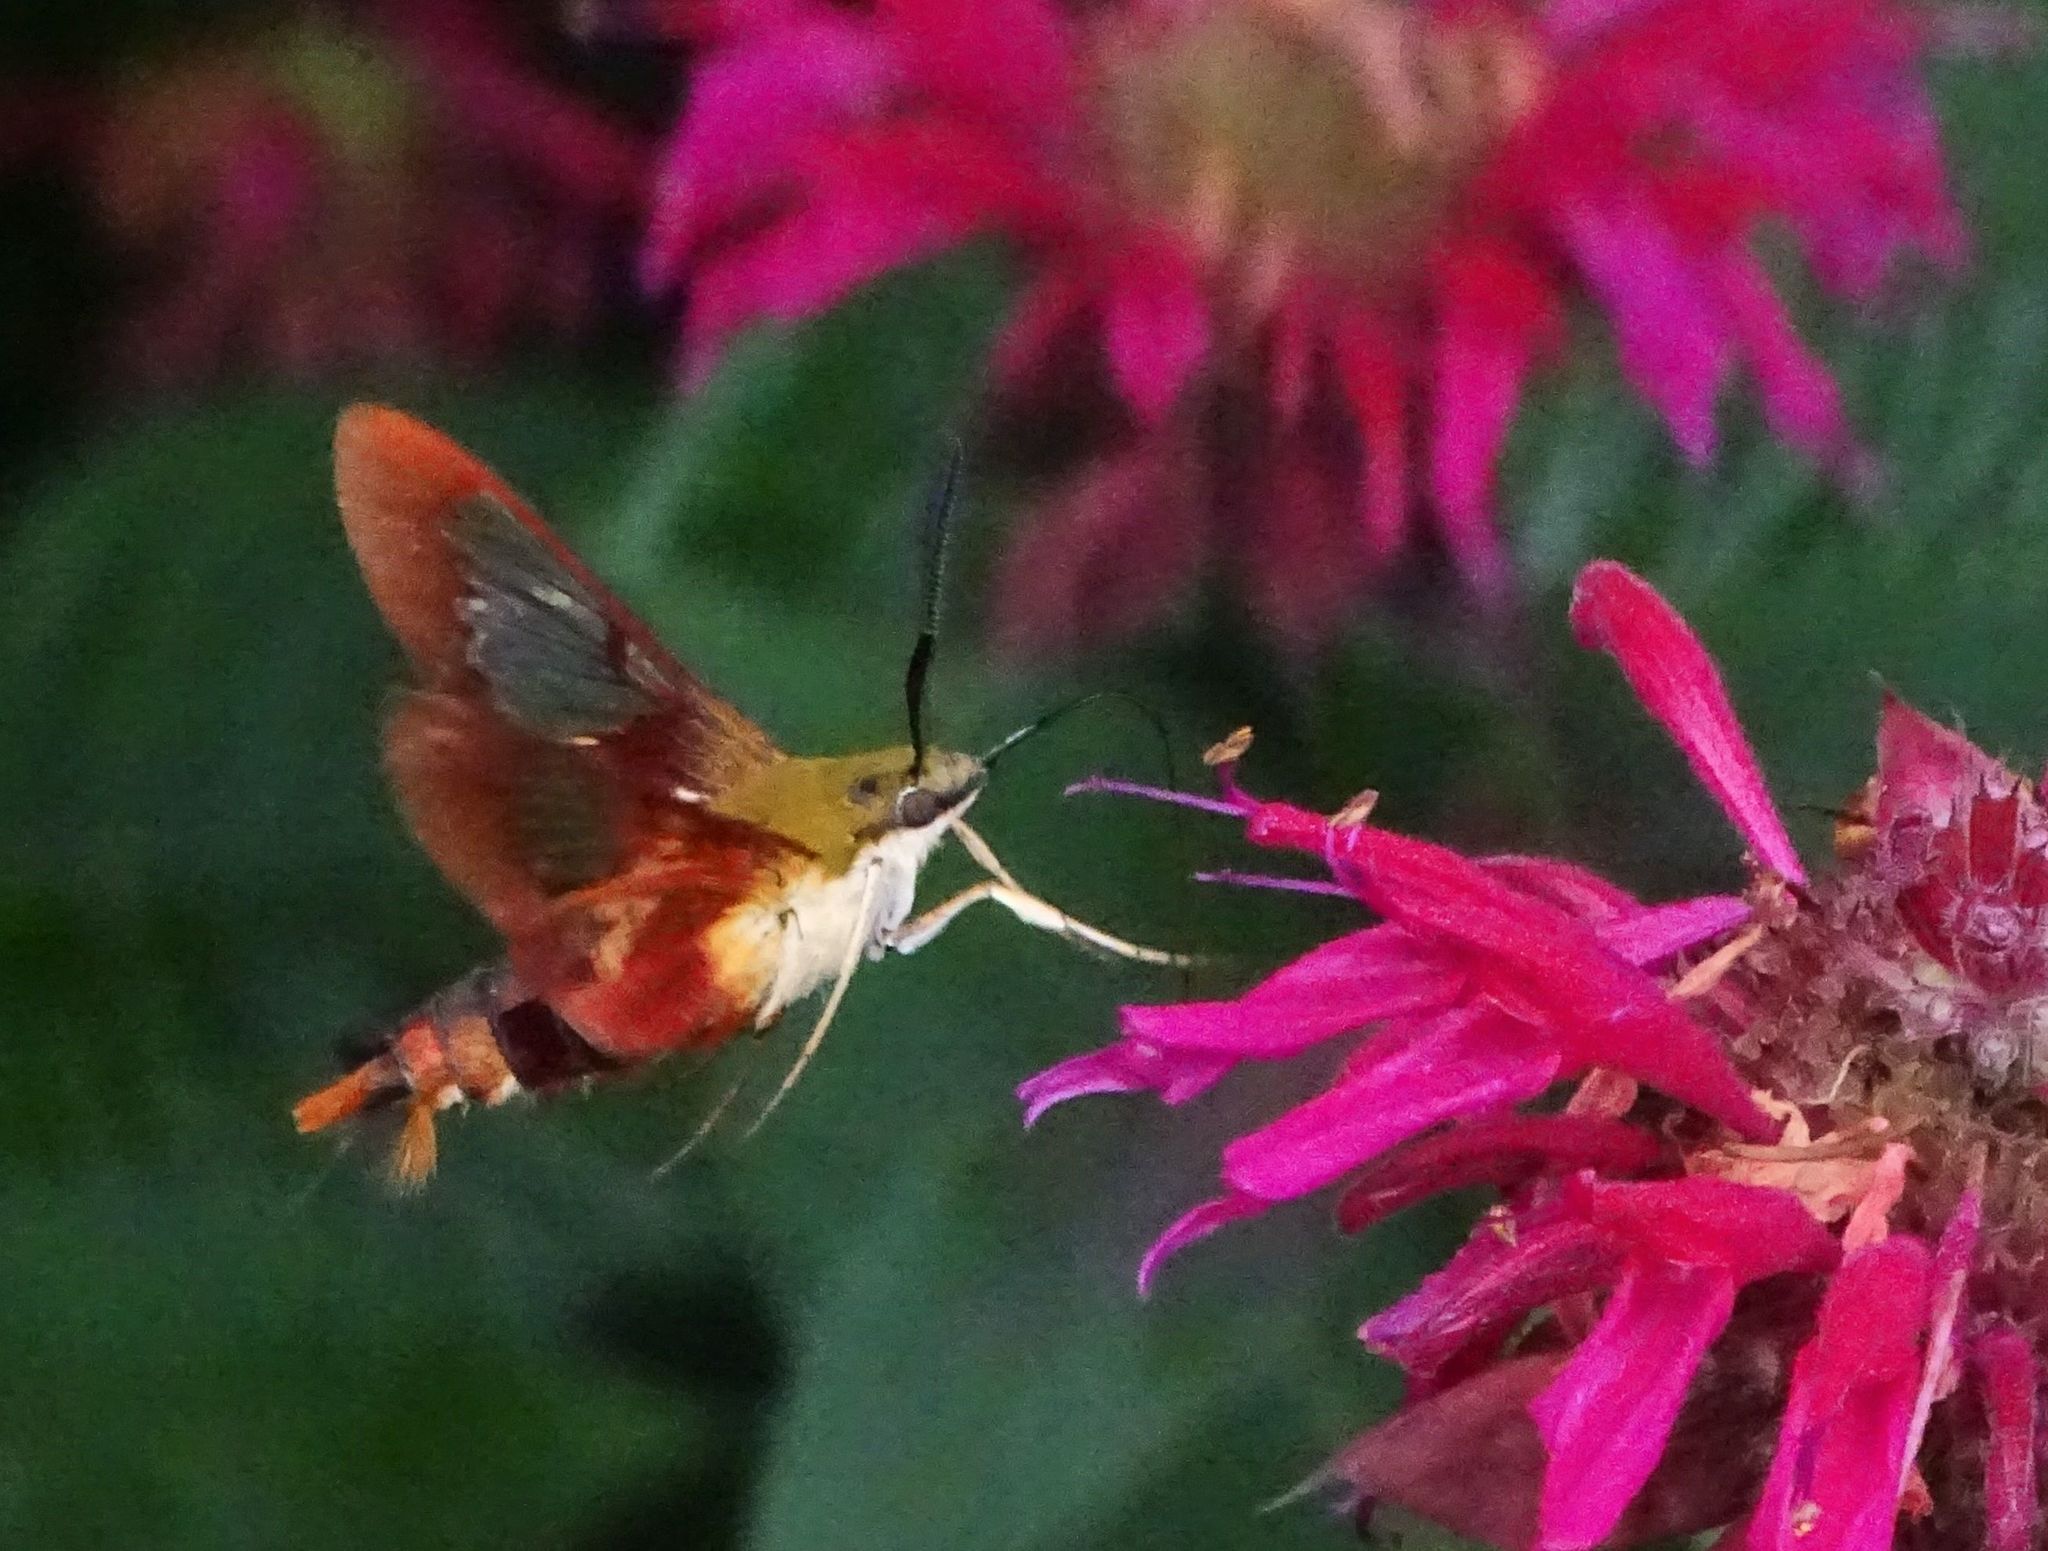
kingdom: Animalia
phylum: Arthropoda
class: Insecta
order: Lepidoptera
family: Sphingidae
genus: Hemaris
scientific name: Hemaris thysbe
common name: Common clear-wing
